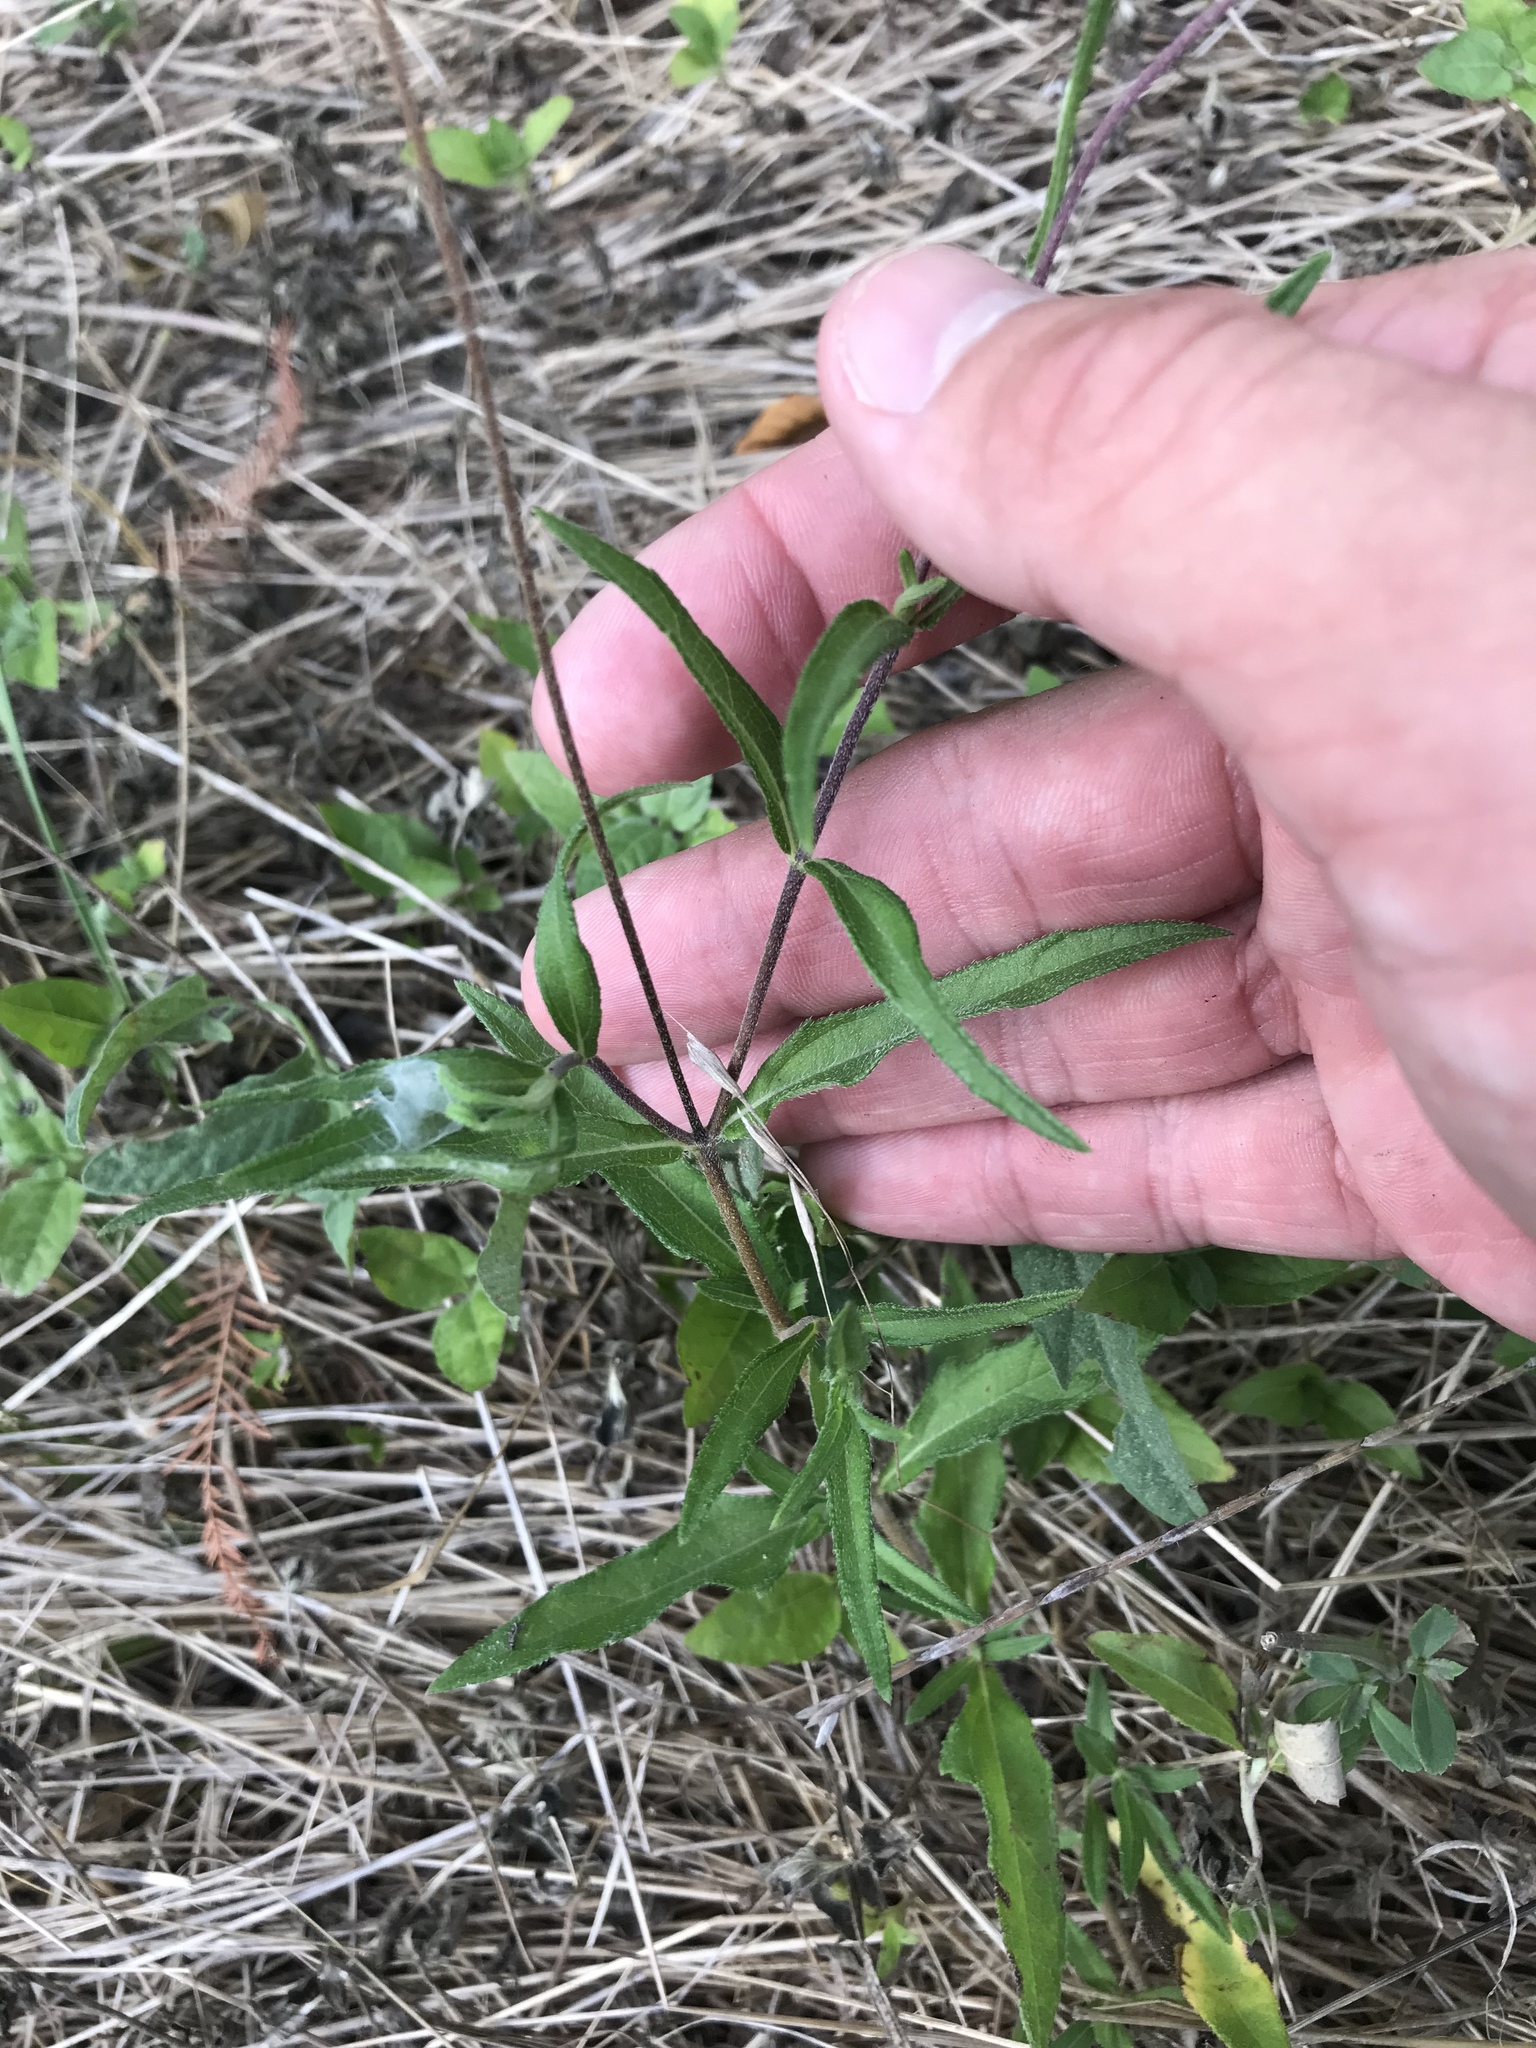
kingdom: Plantae
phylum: Tracheophyta
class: Magnoliopsida
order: Asterales
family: Asteraceae
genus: Wedelia
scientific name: Wedelia acapulcensis
